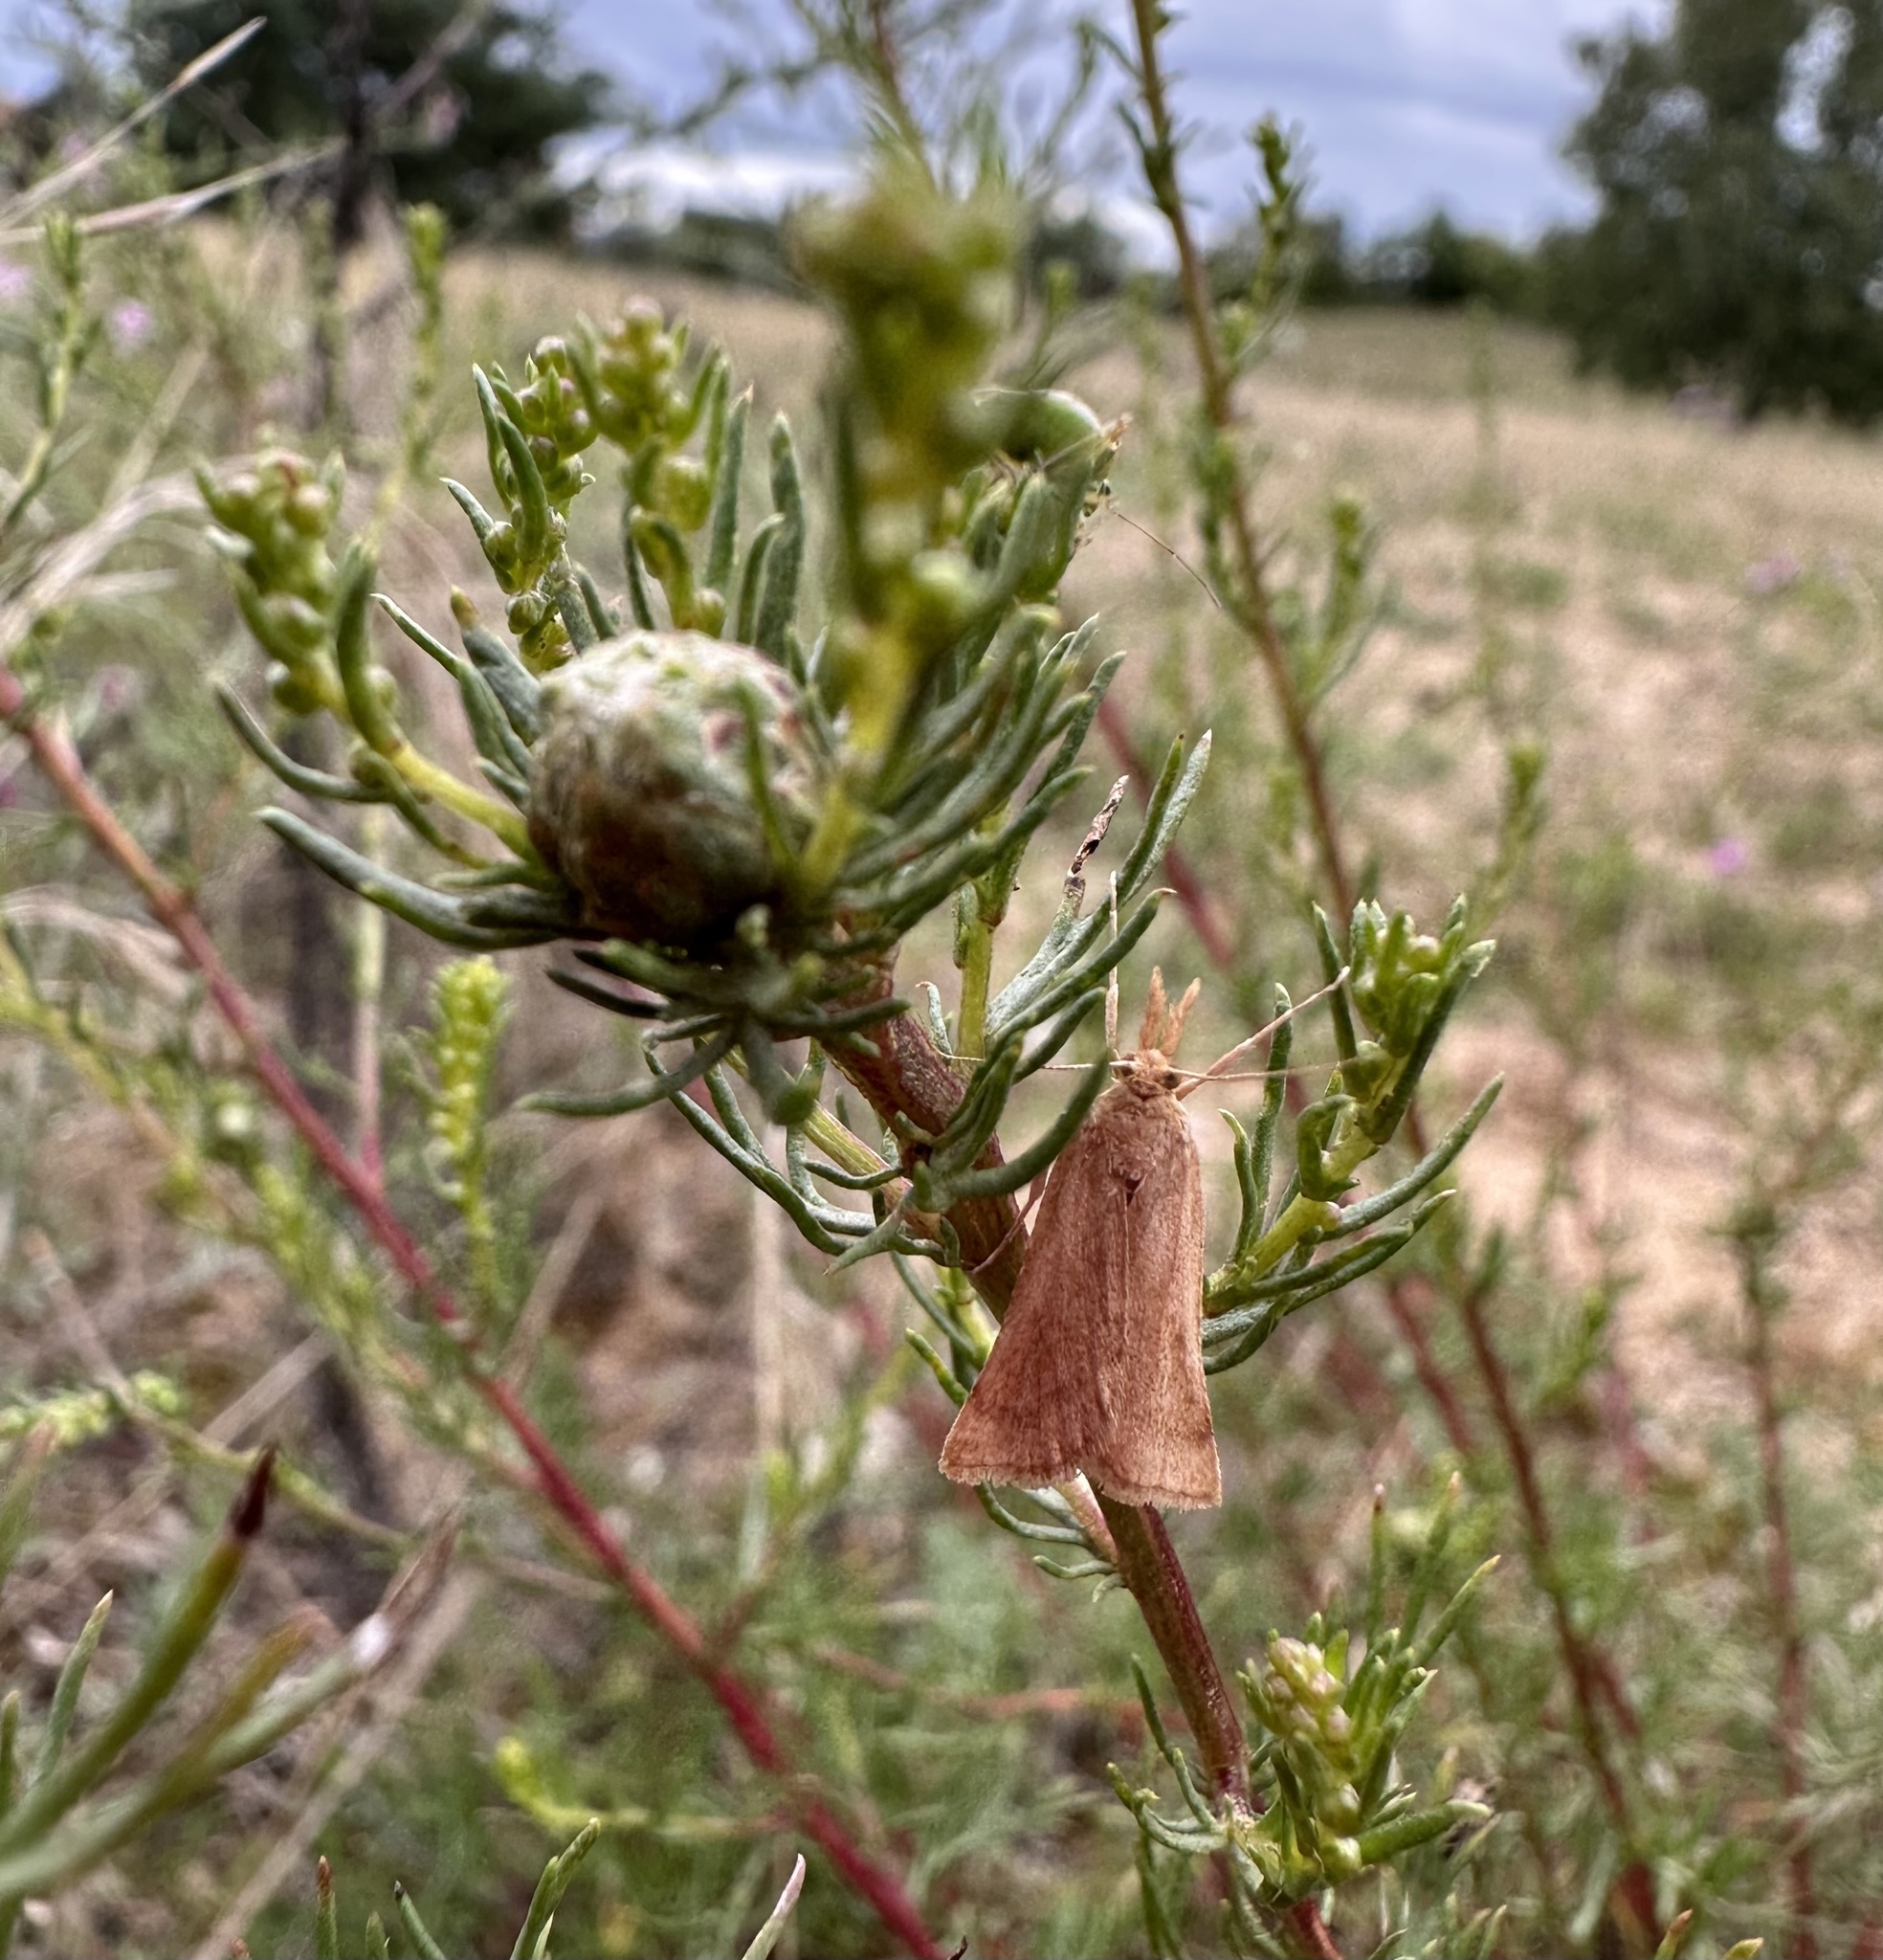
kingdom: Animalia
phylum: Arthropoda
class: Insecta
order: Lepidoptera
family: Pyralidae
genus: Synaphe
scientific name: Synaphe punctalis
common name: Long-legged tabby
